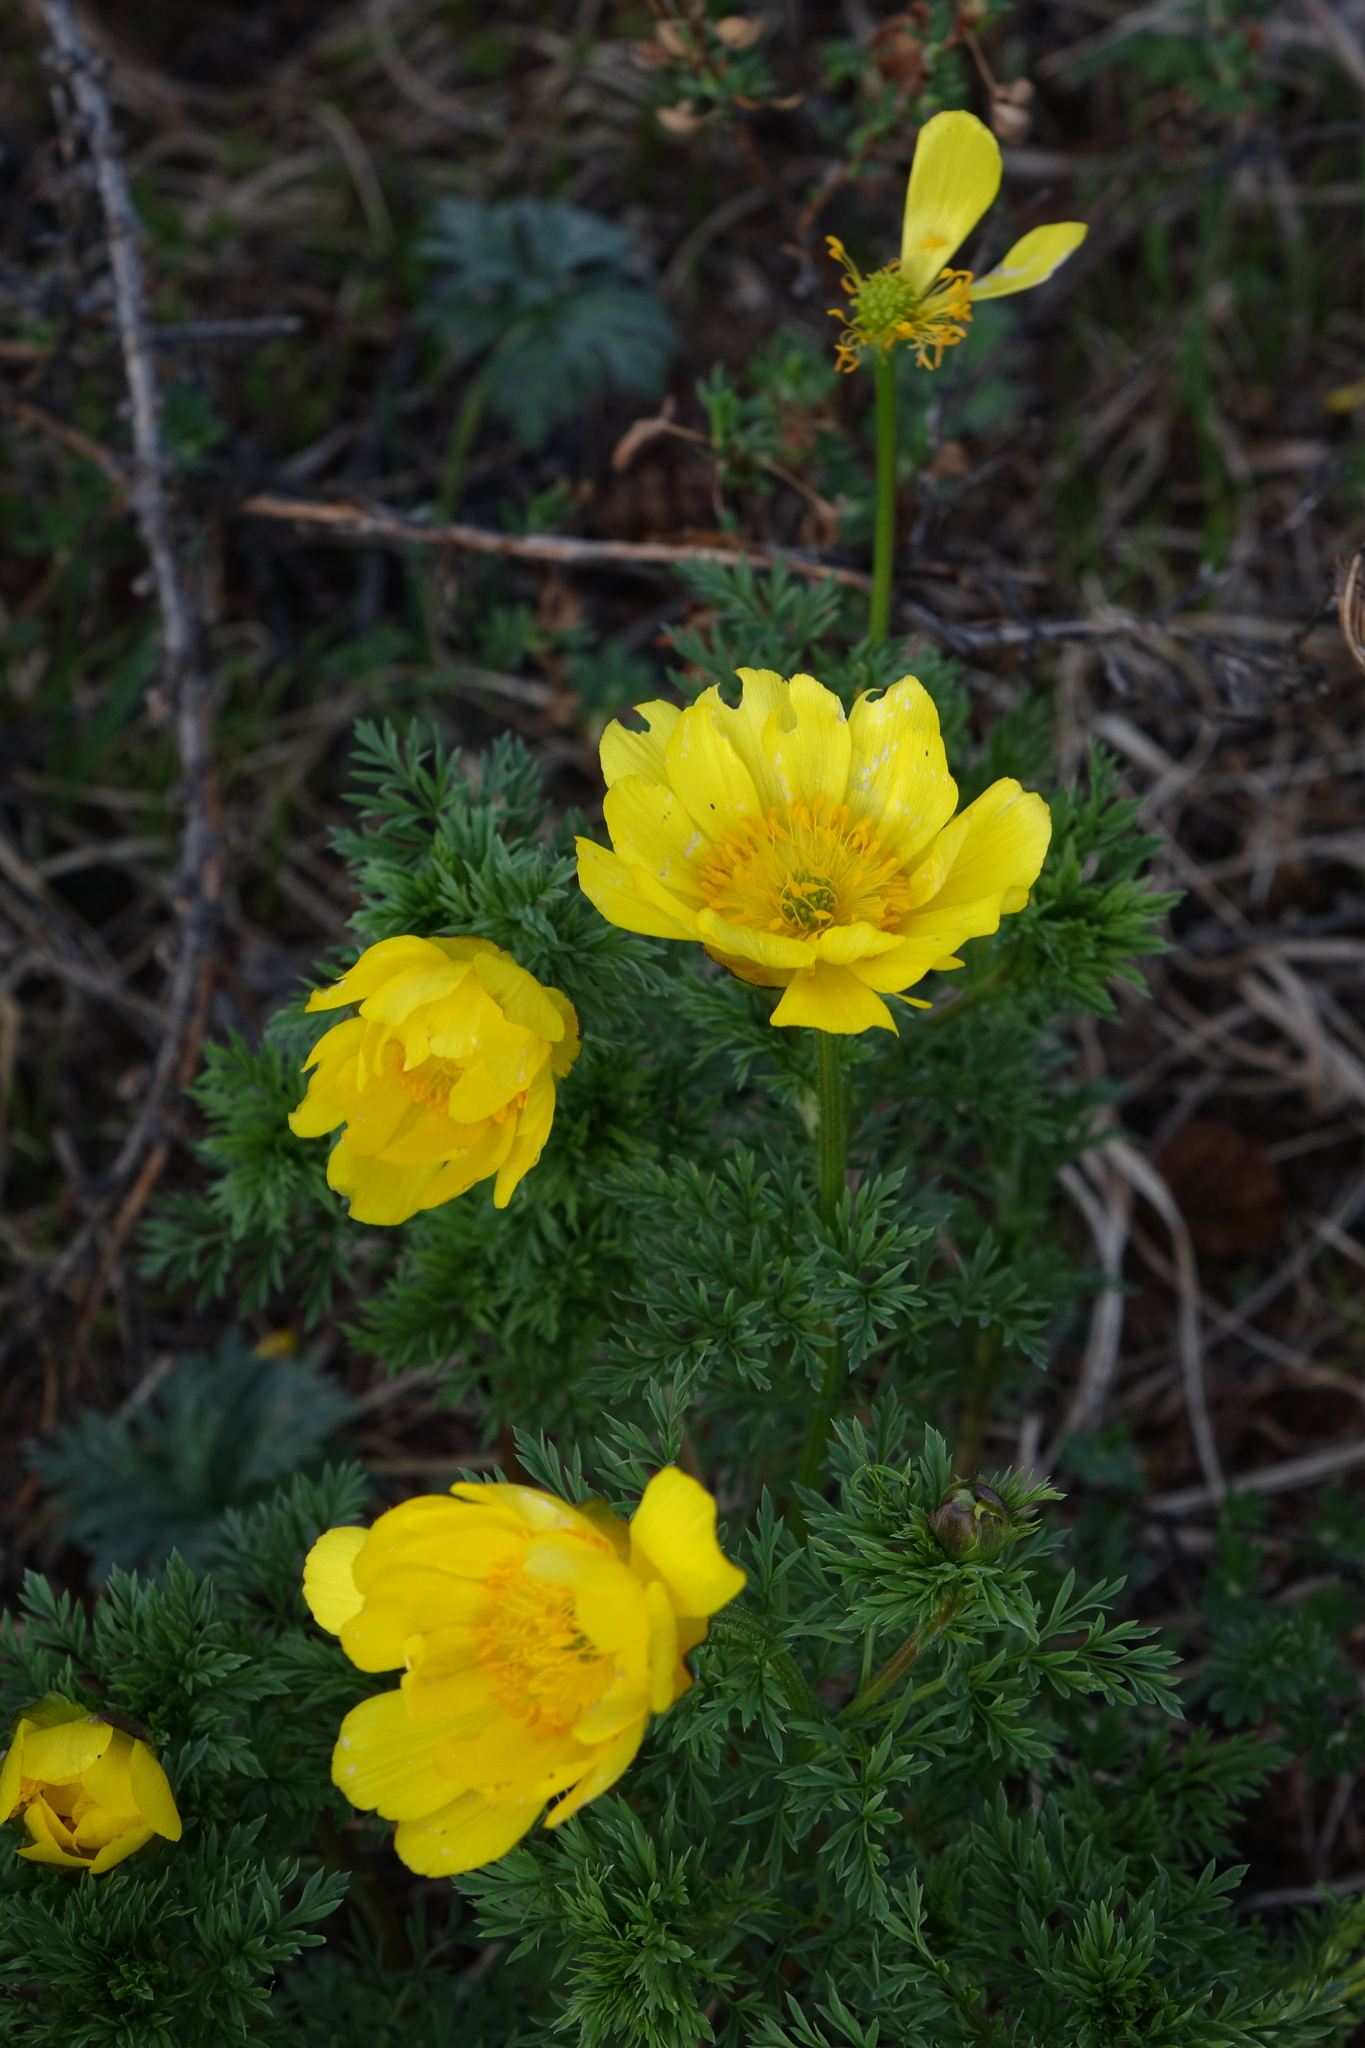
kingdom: Plantae
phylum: Tracheophyta
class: Magnoliopsida
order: Ranunculales
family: Ranunculaceae
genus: Adonis
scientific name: Adonis
